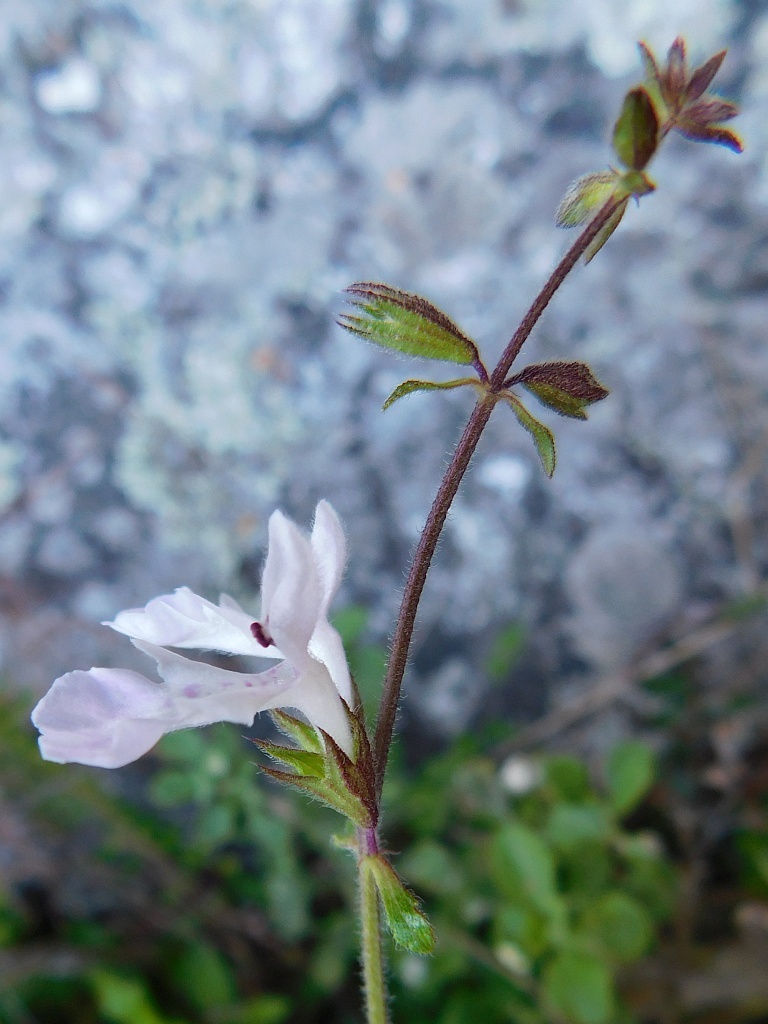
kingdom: Plantae
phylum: Tracheophyta
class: Magnoliopsida
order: Lamiales
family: Lamiaceae
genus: Stachys
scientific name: Stachys aethiopica
